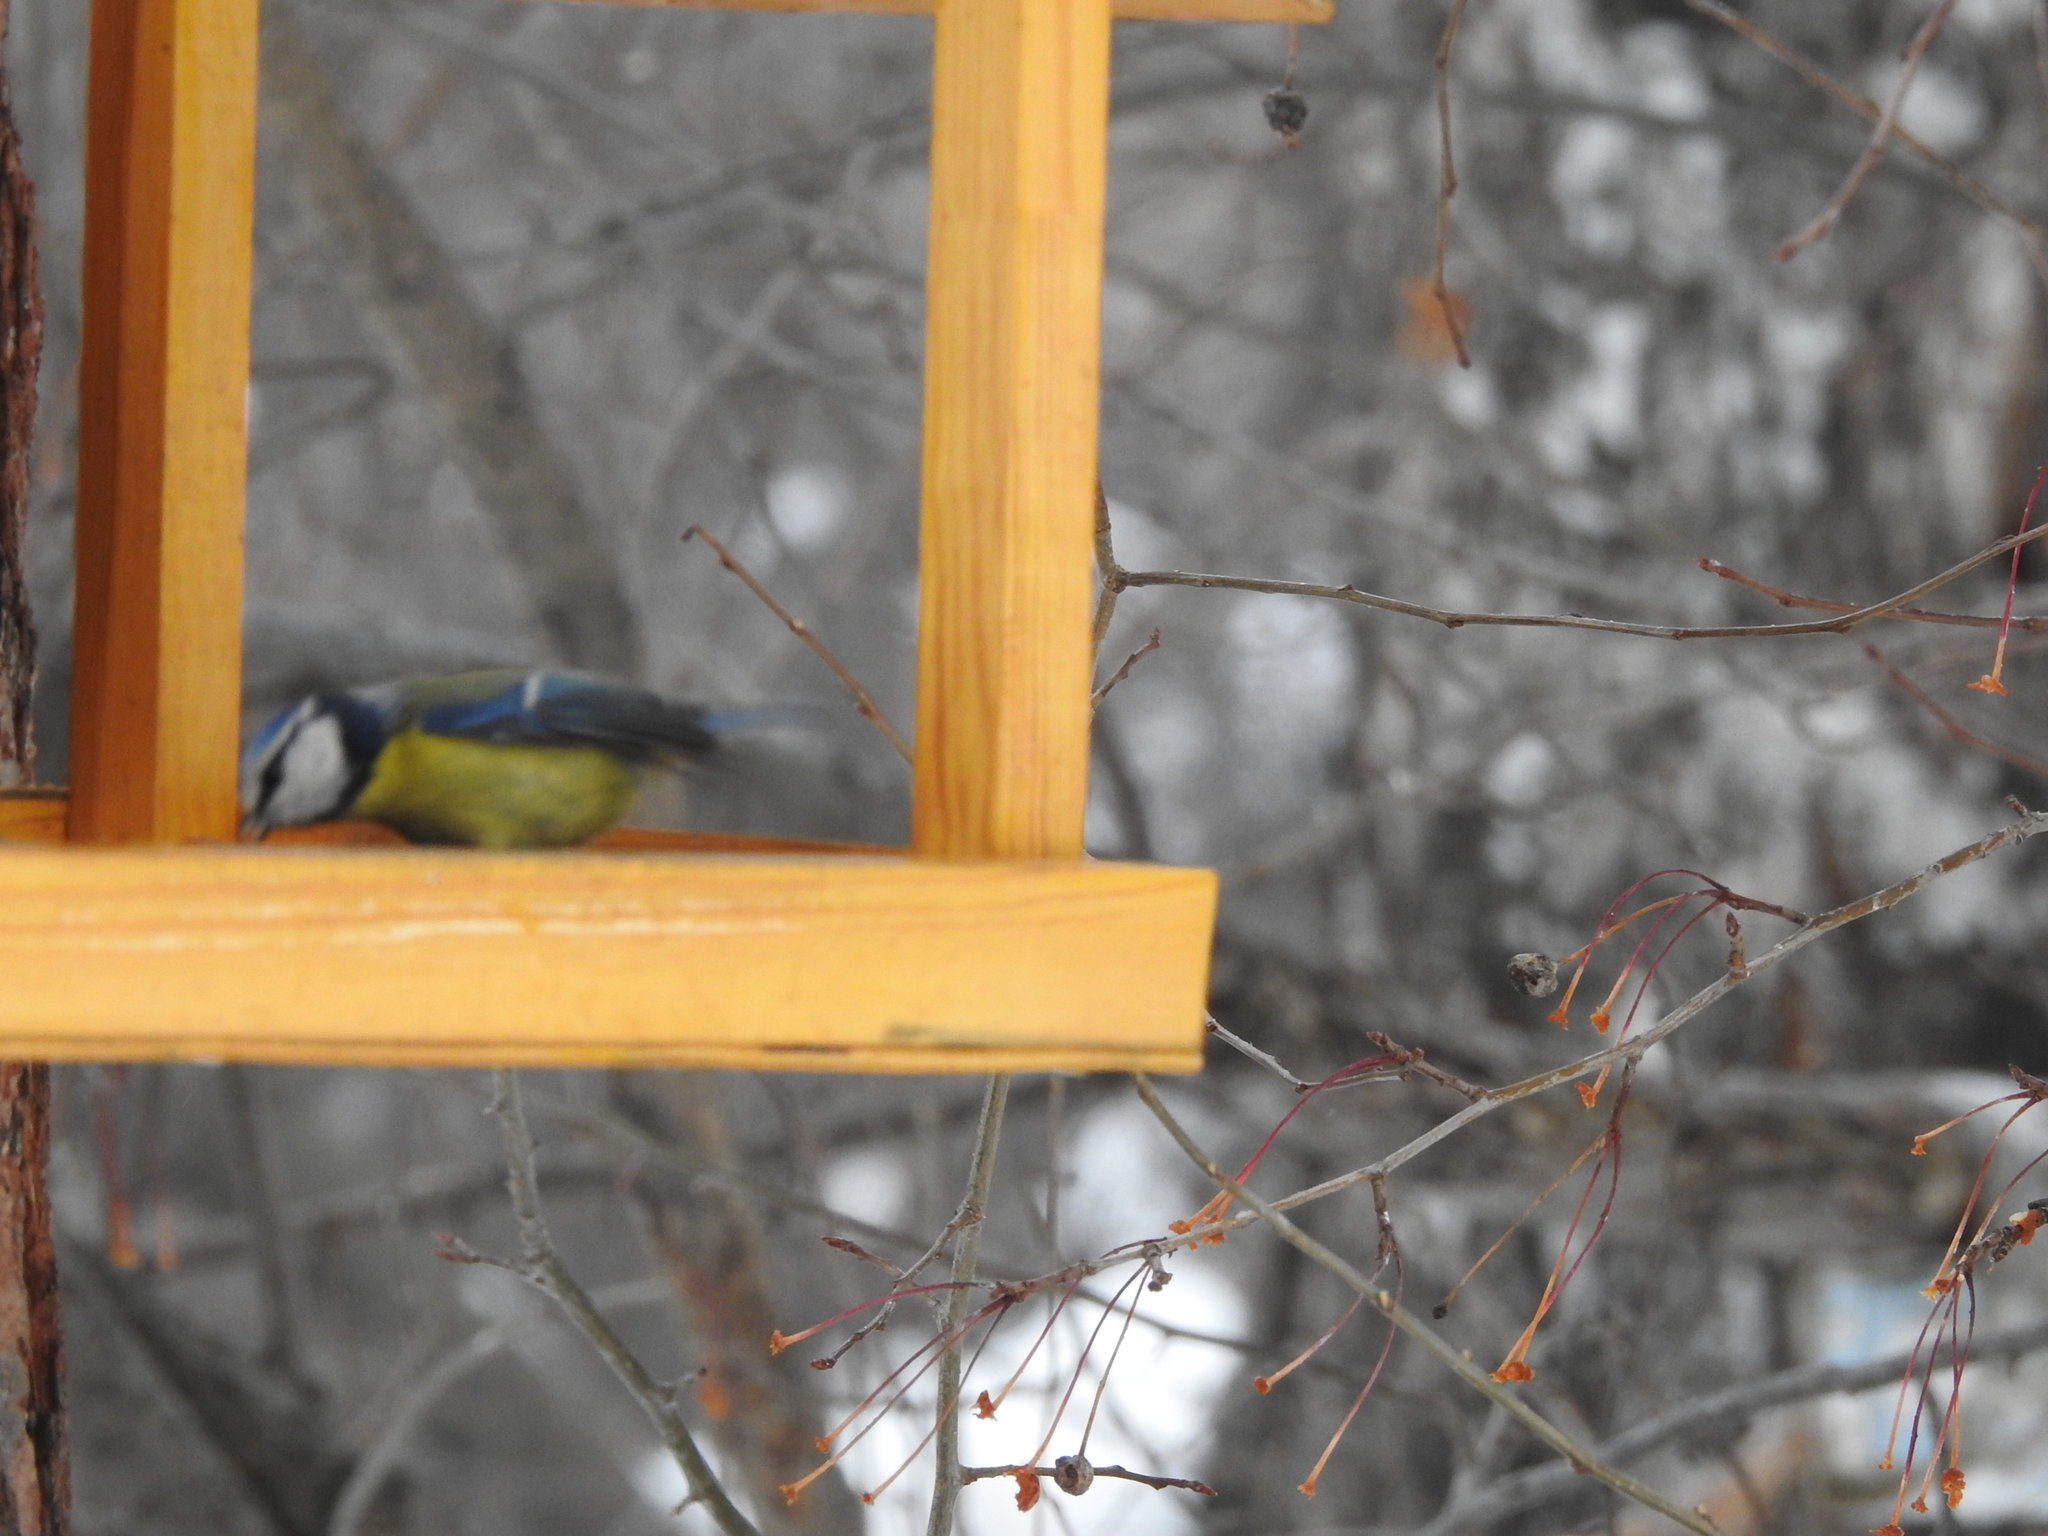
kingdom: Animalia
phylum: Chordata
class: Aves
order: Passeriformes
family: Paridae
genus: Cyanistes
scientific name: Cyanistes caeruleus
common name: Eurasian blue tit
